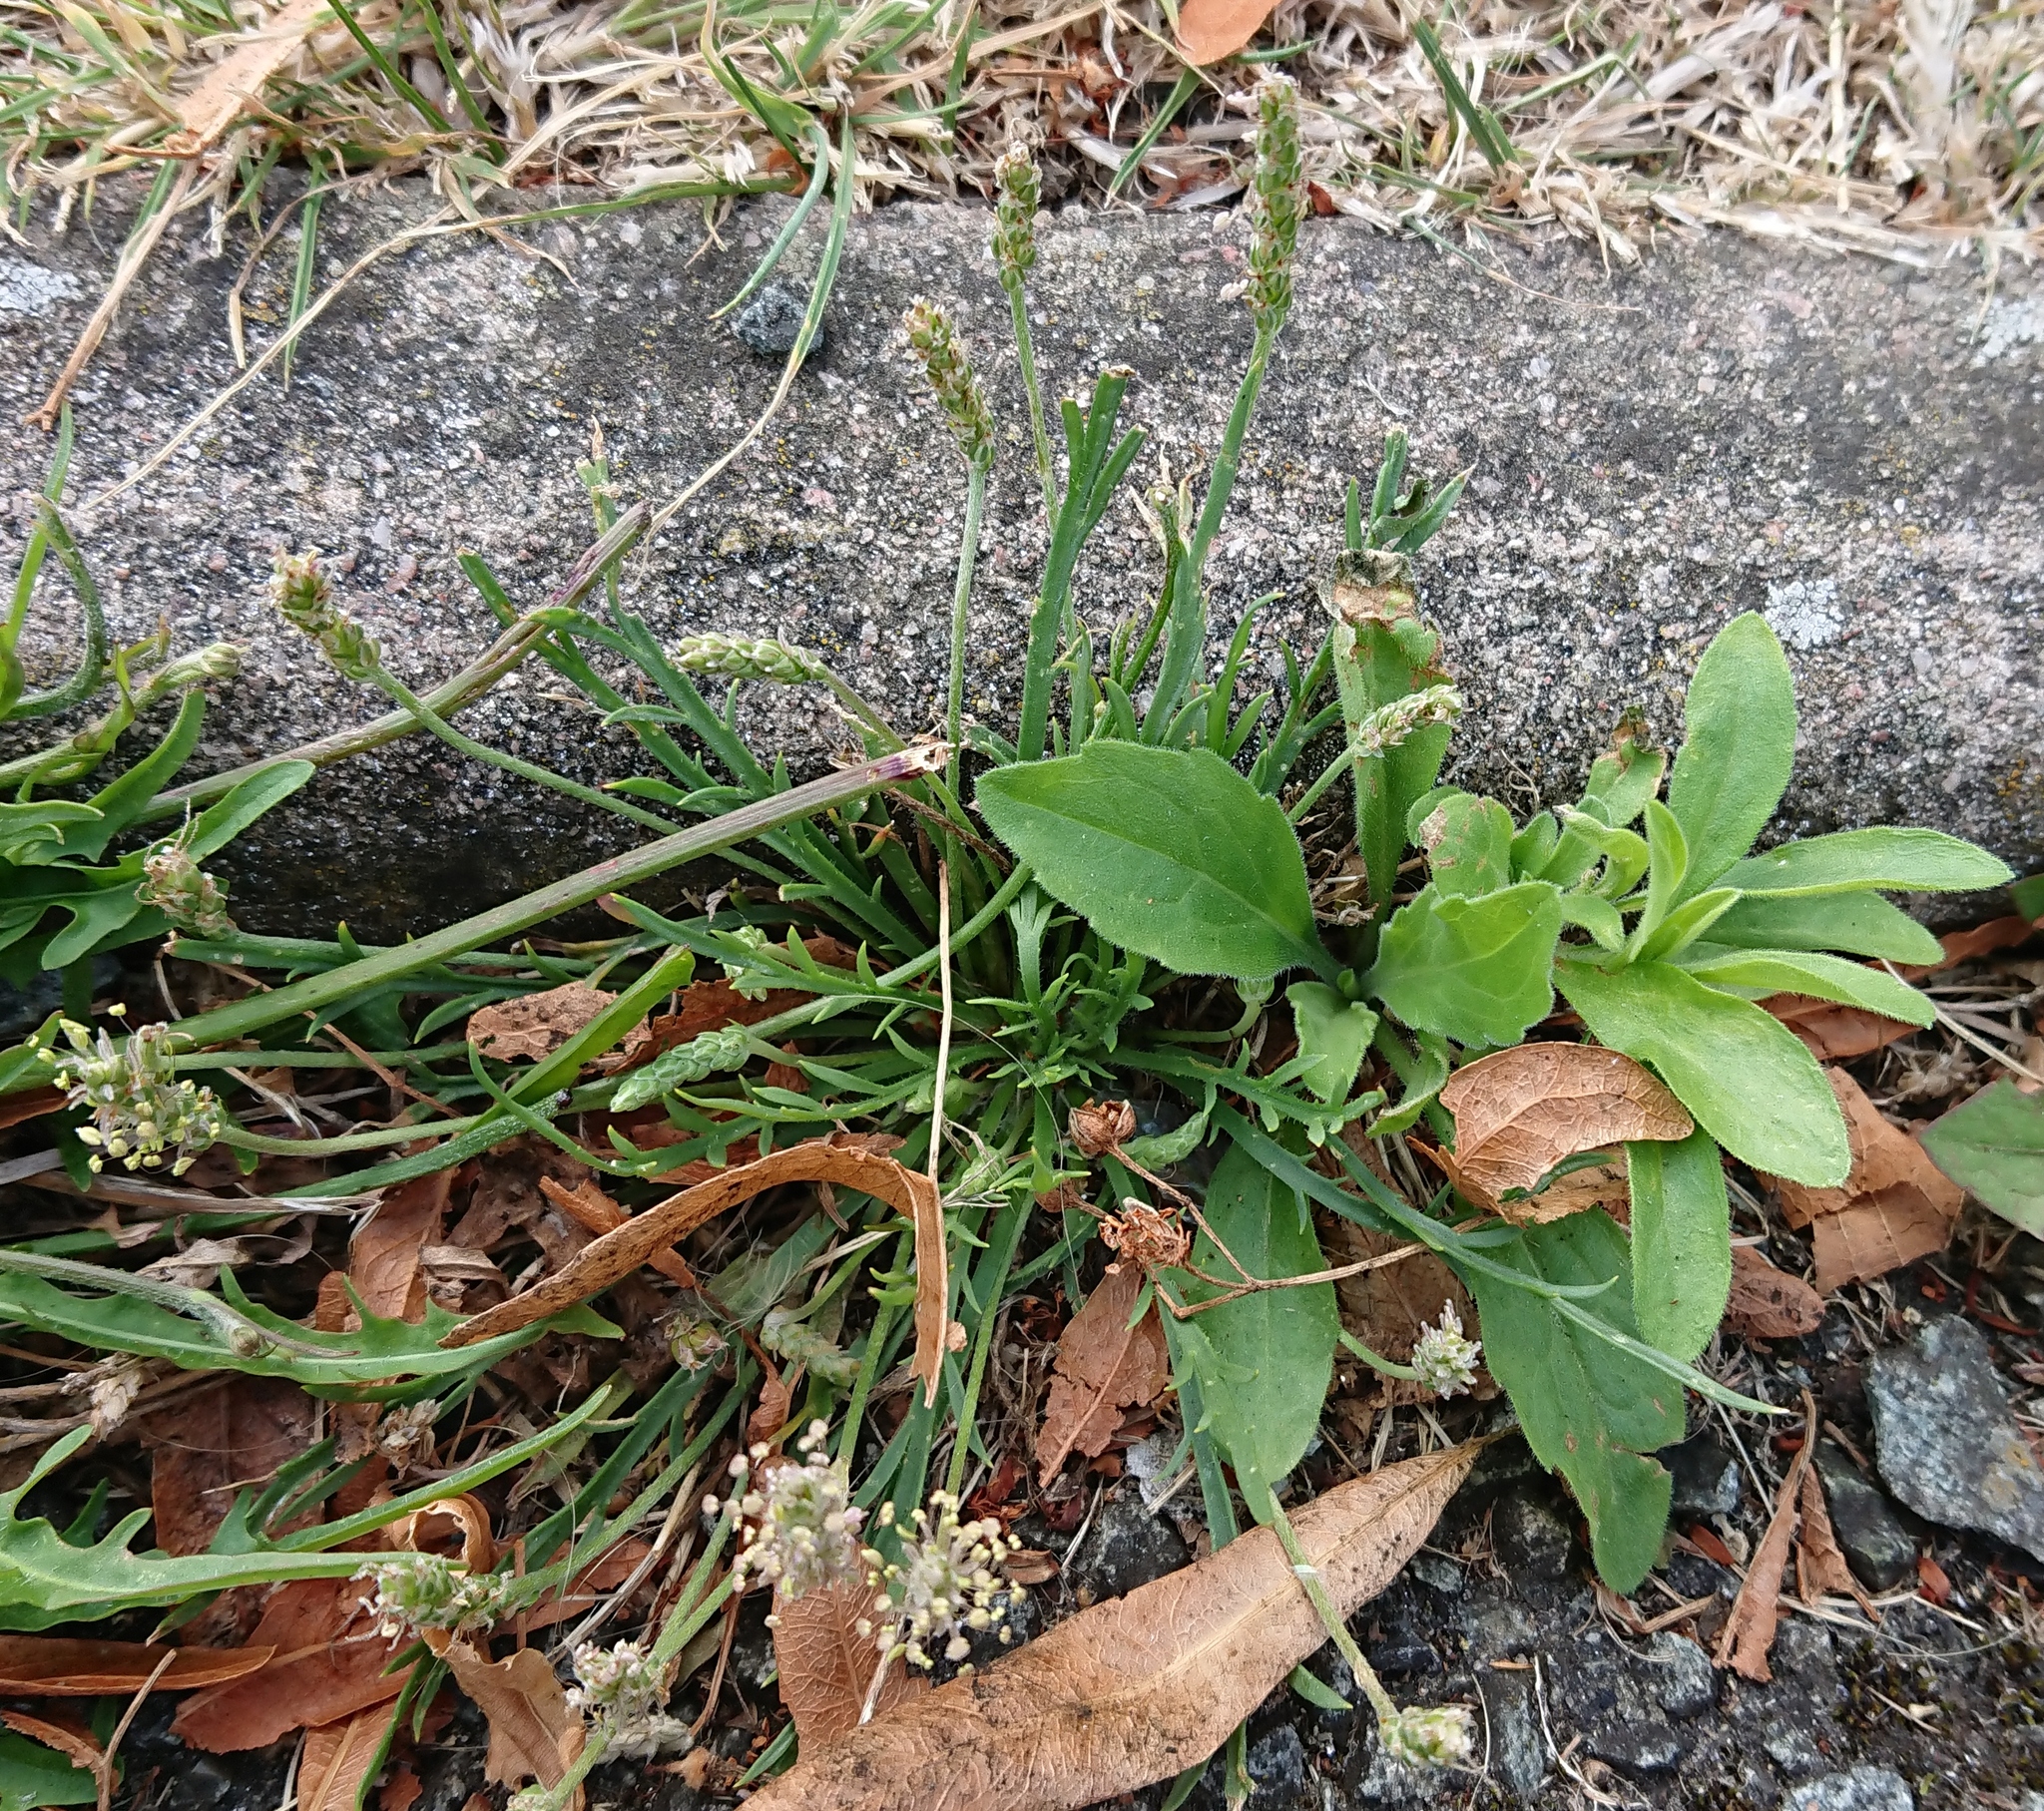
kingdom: Plantae
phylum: Tracheophyta
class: Magnoliopsida
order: Lamiales
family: Plantaginaceae
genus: Plantago
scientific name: Plantago coronopus
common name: Buck's-horn plantain
